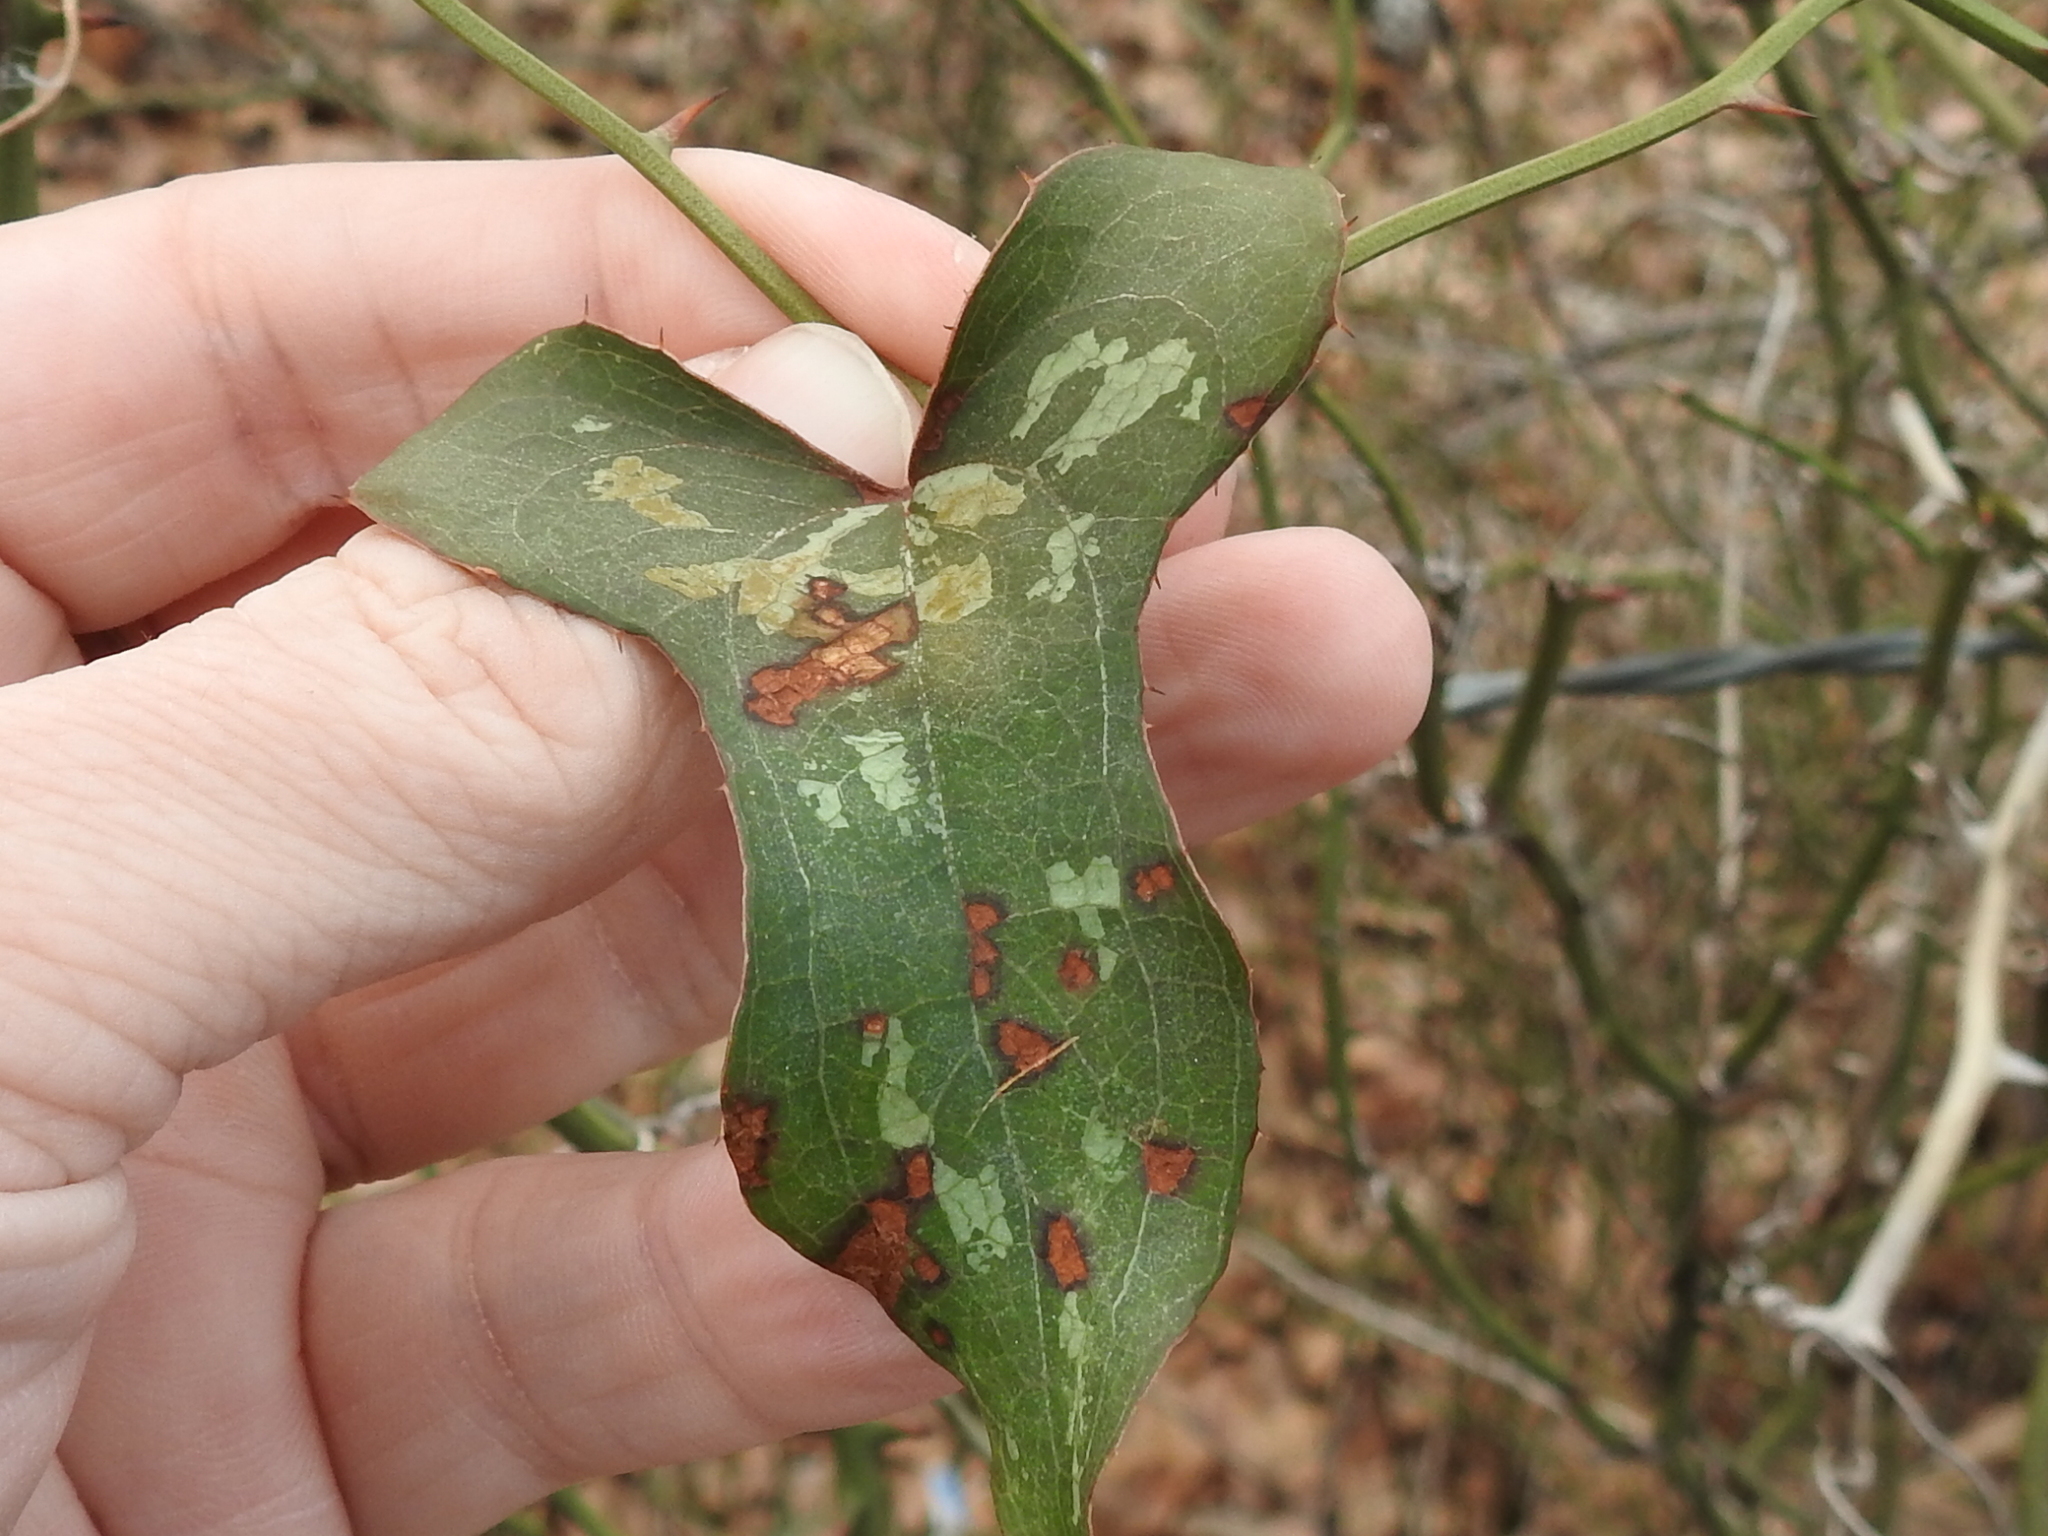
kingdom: Plantae
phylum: Tracheophyta
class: Liliopsida
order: Liliales
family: Smilacaceae
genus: Smilax
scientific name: Smilax bona-nox
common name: Catbrier
